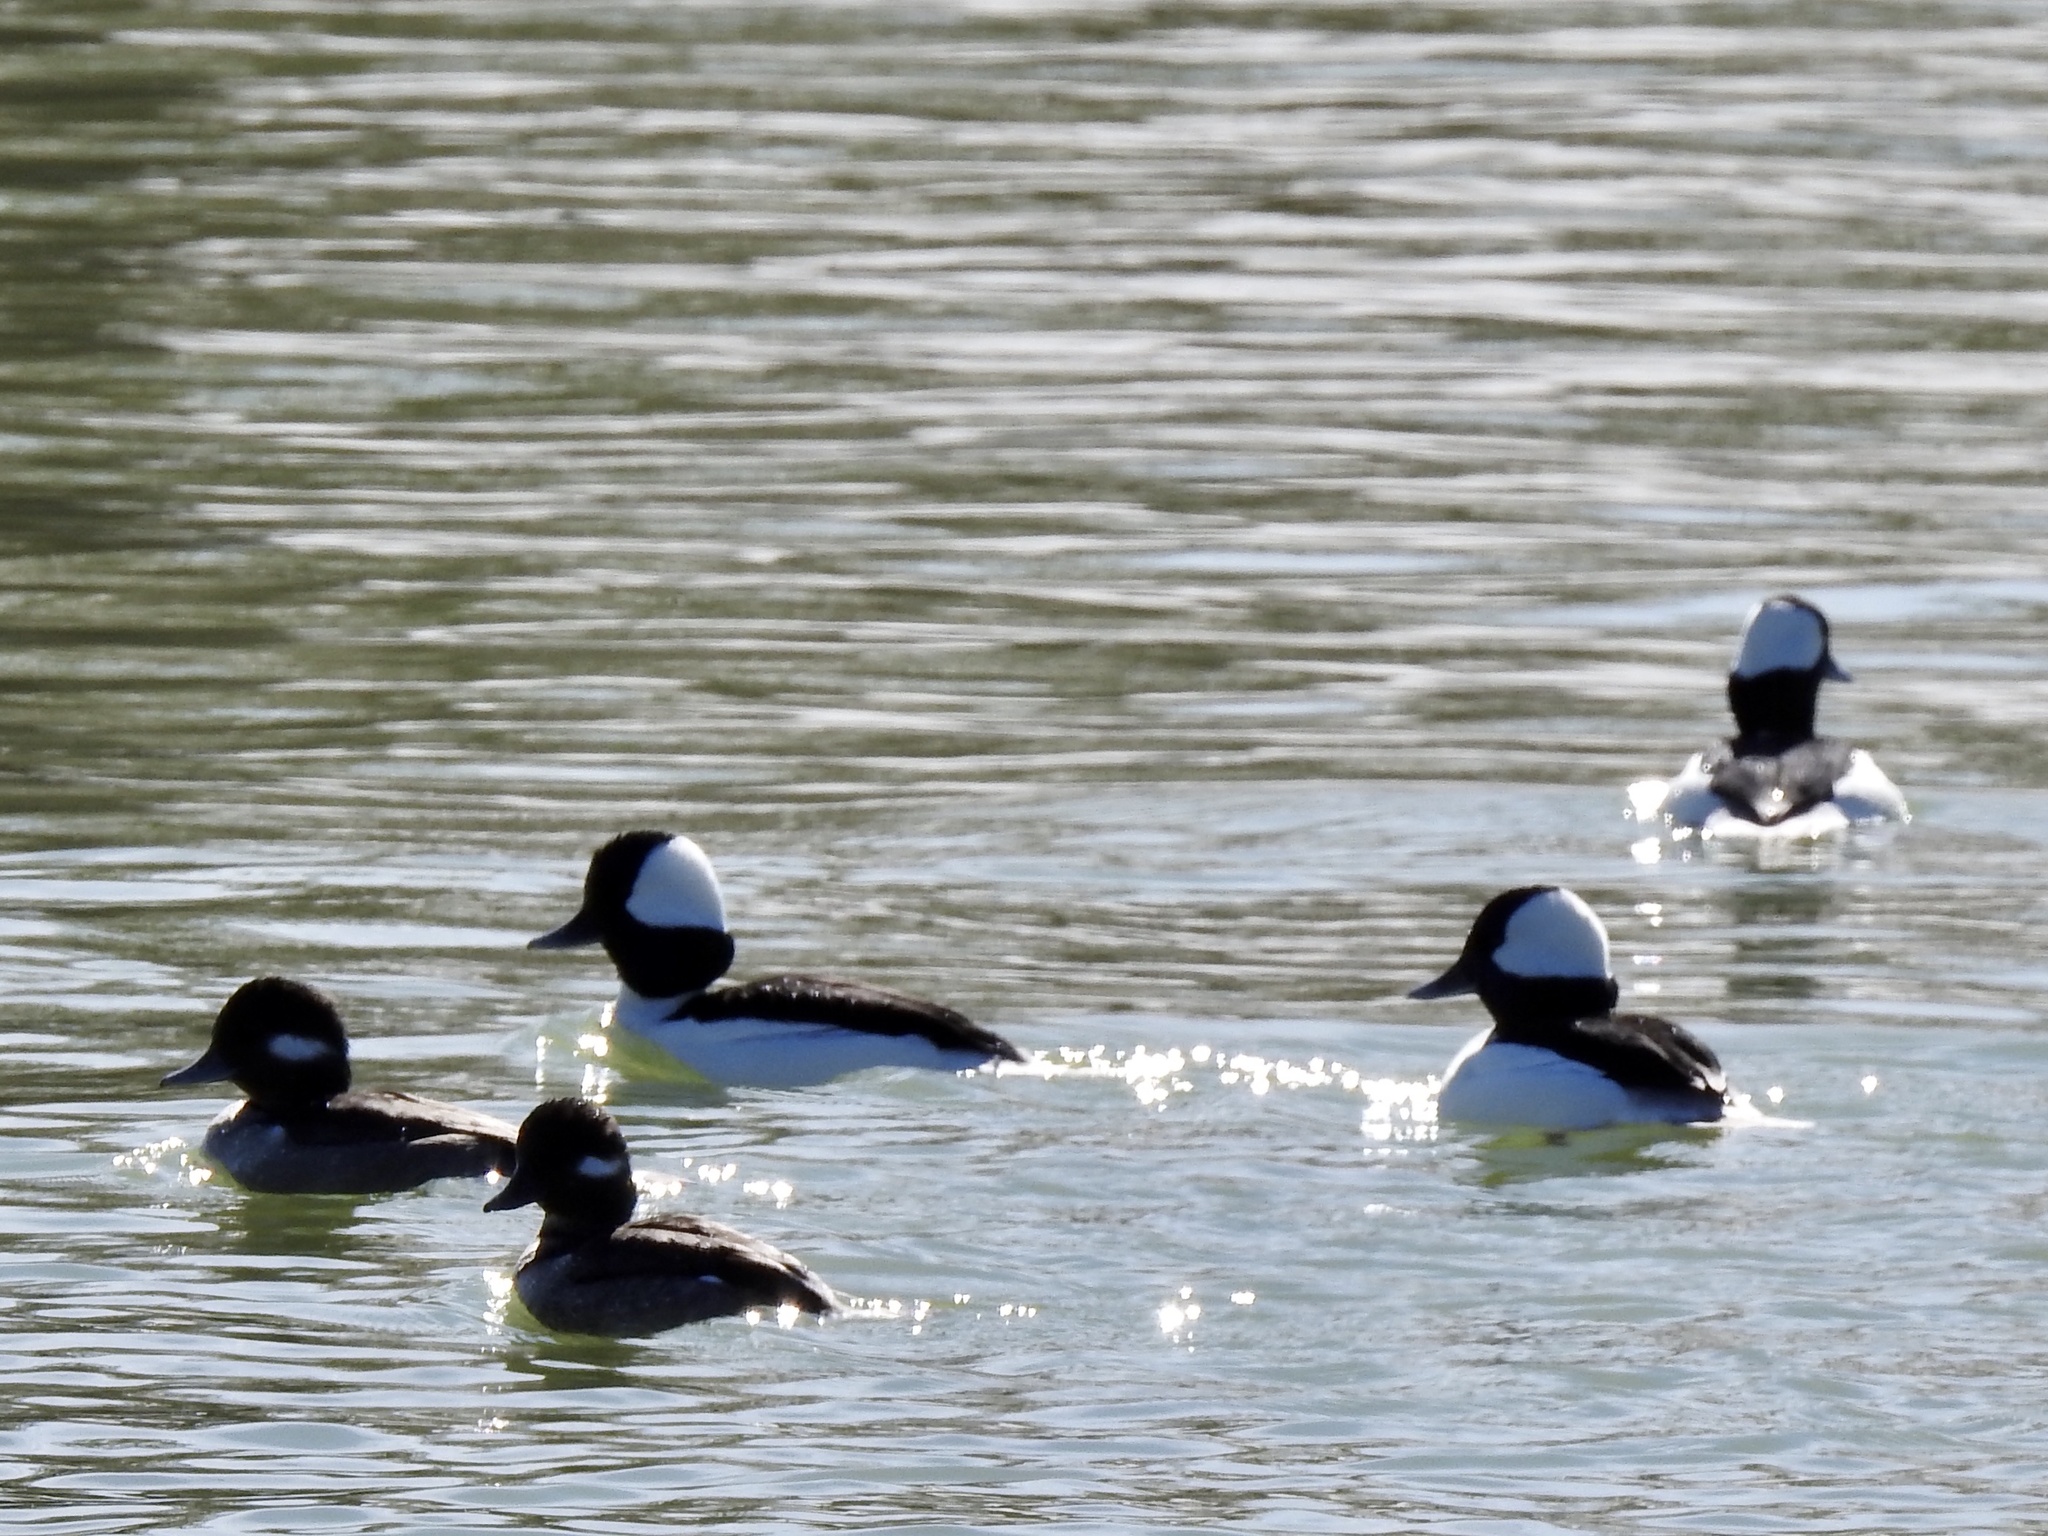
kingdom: Animalia
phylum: Chordata
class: Aves
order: Anseriformes
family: Anatidae
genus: Bucephala
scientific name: Bucephala albeola
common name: Bufflehead
